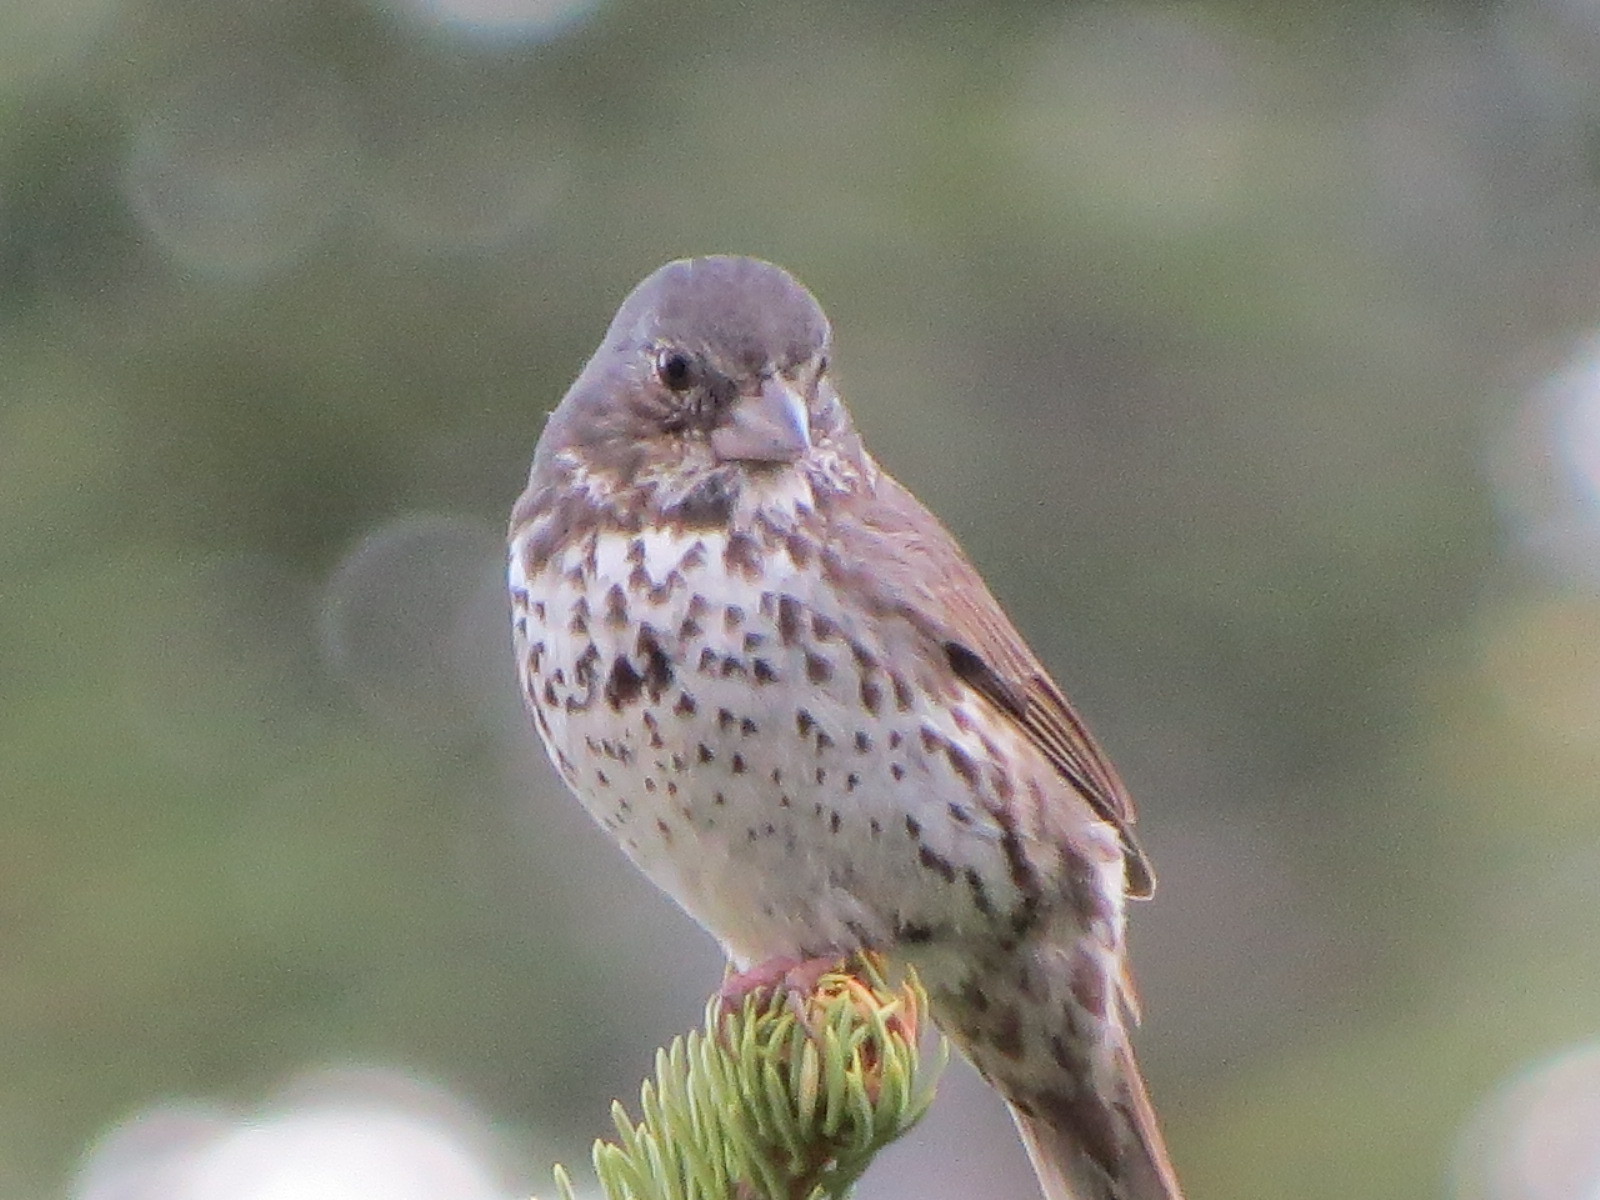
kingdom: Animalia
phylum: Chordata
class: Aves
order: Passeriformes
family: Passerellidae
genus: Passerella
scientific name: Passerella megarhyncha
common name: Thick-billed fox sparrow
